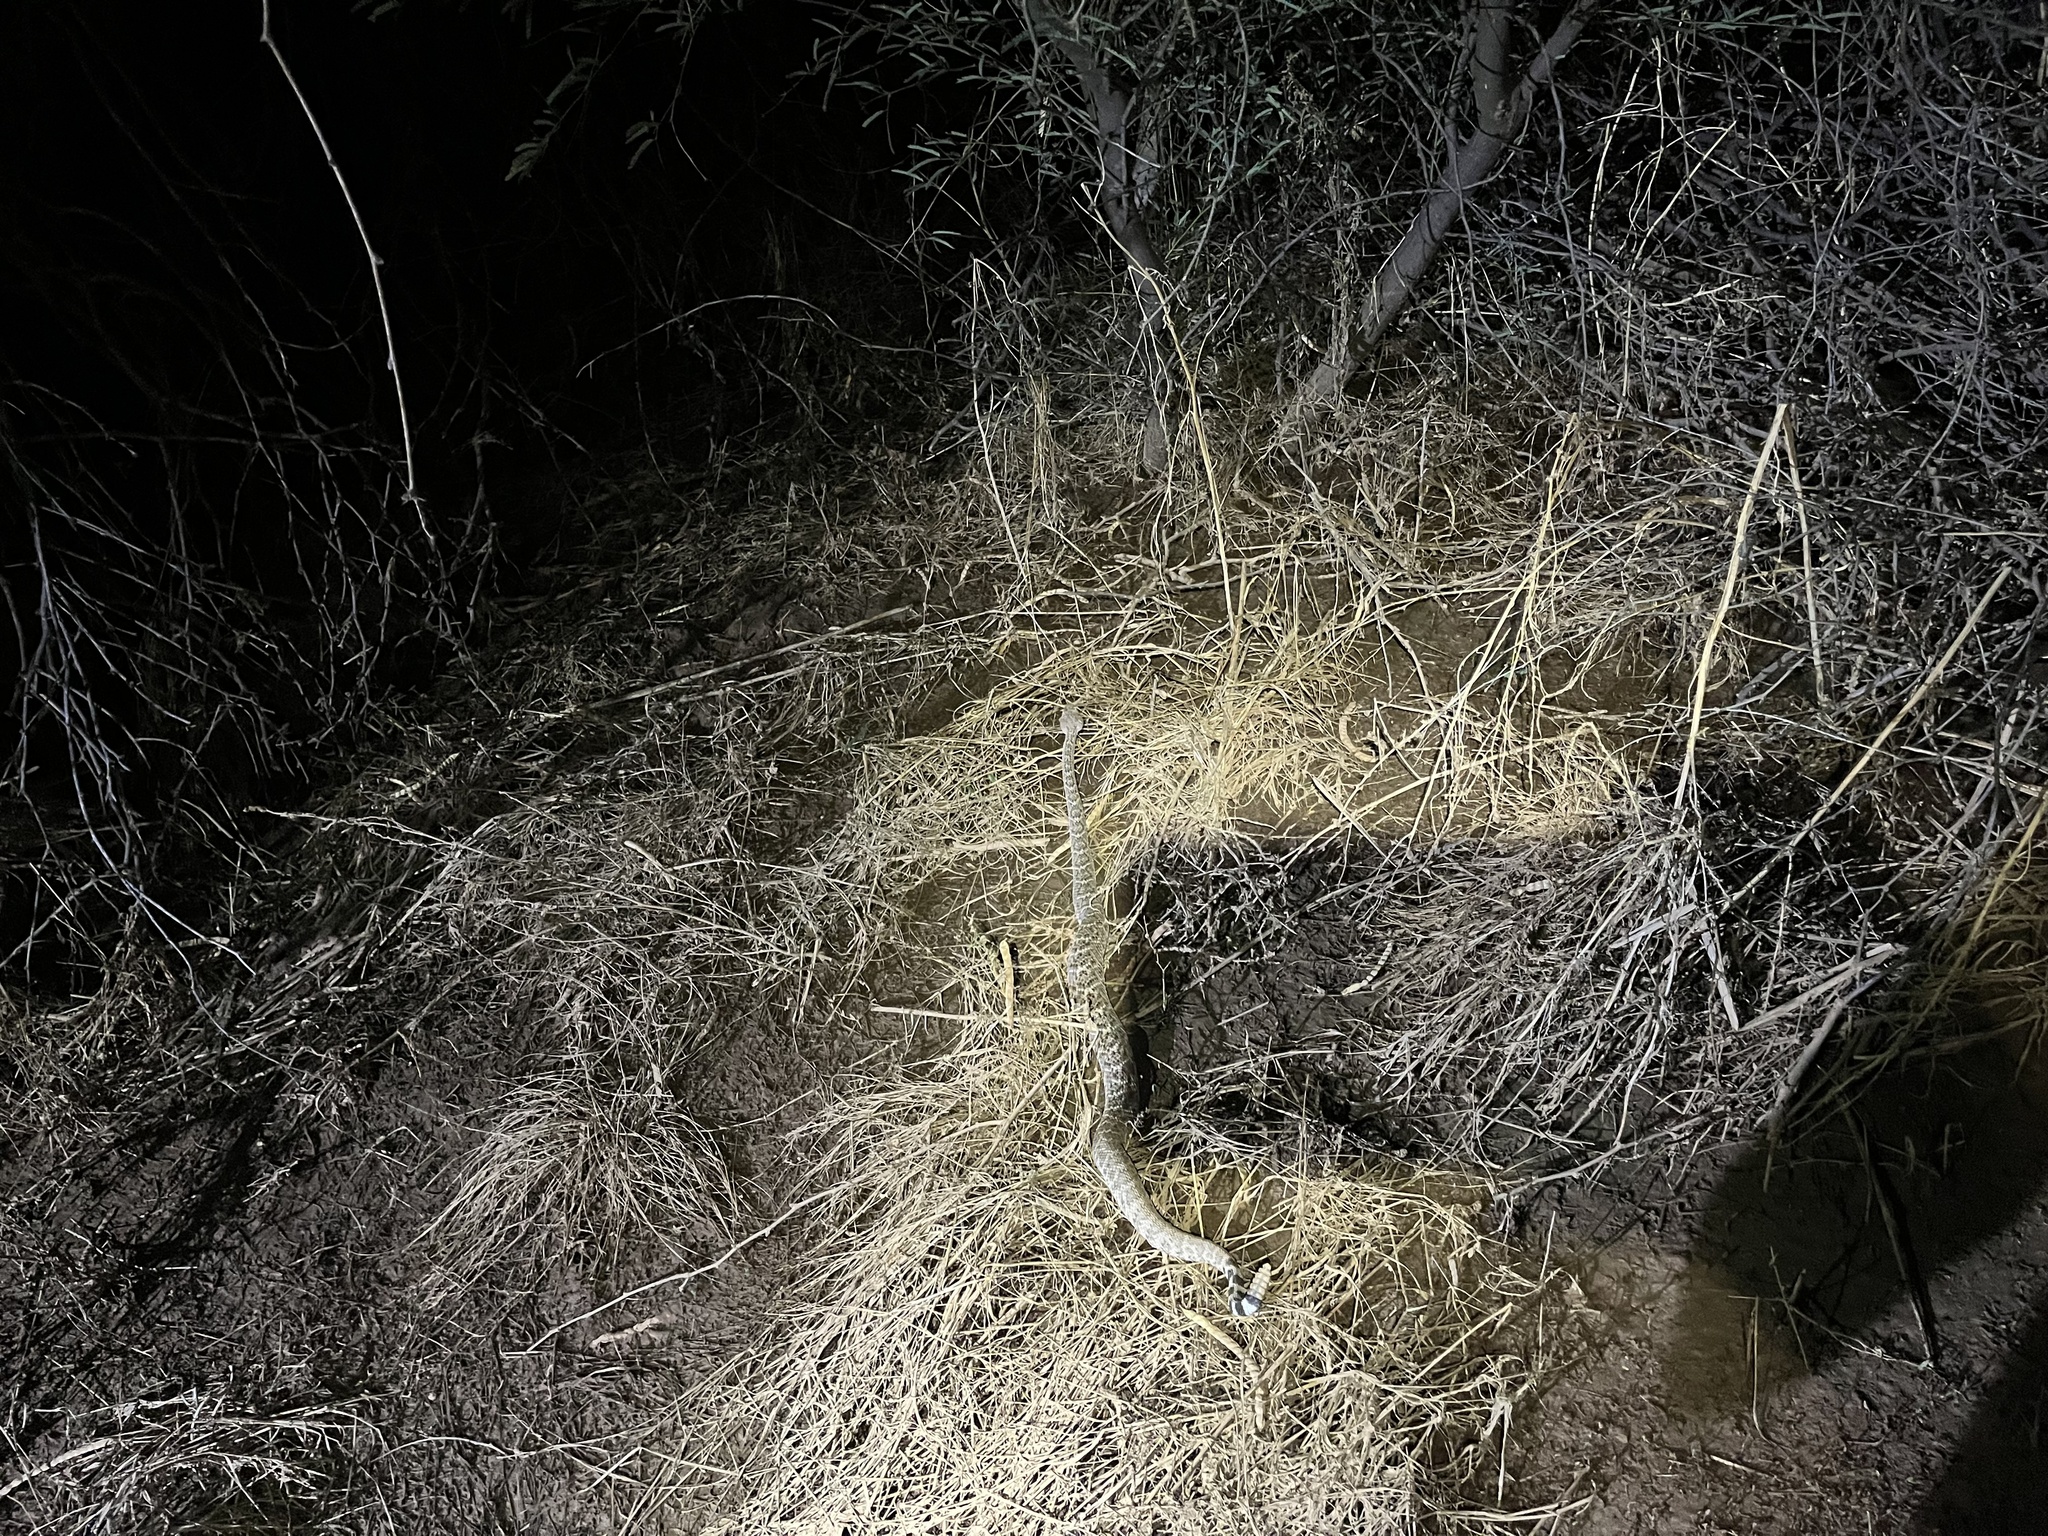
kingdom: Animalia
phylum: Chordata
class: Squamata
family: Viperidae
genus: Crotalus
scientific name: Crotalus atrox
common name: Western diamond-backed rattlesnake
